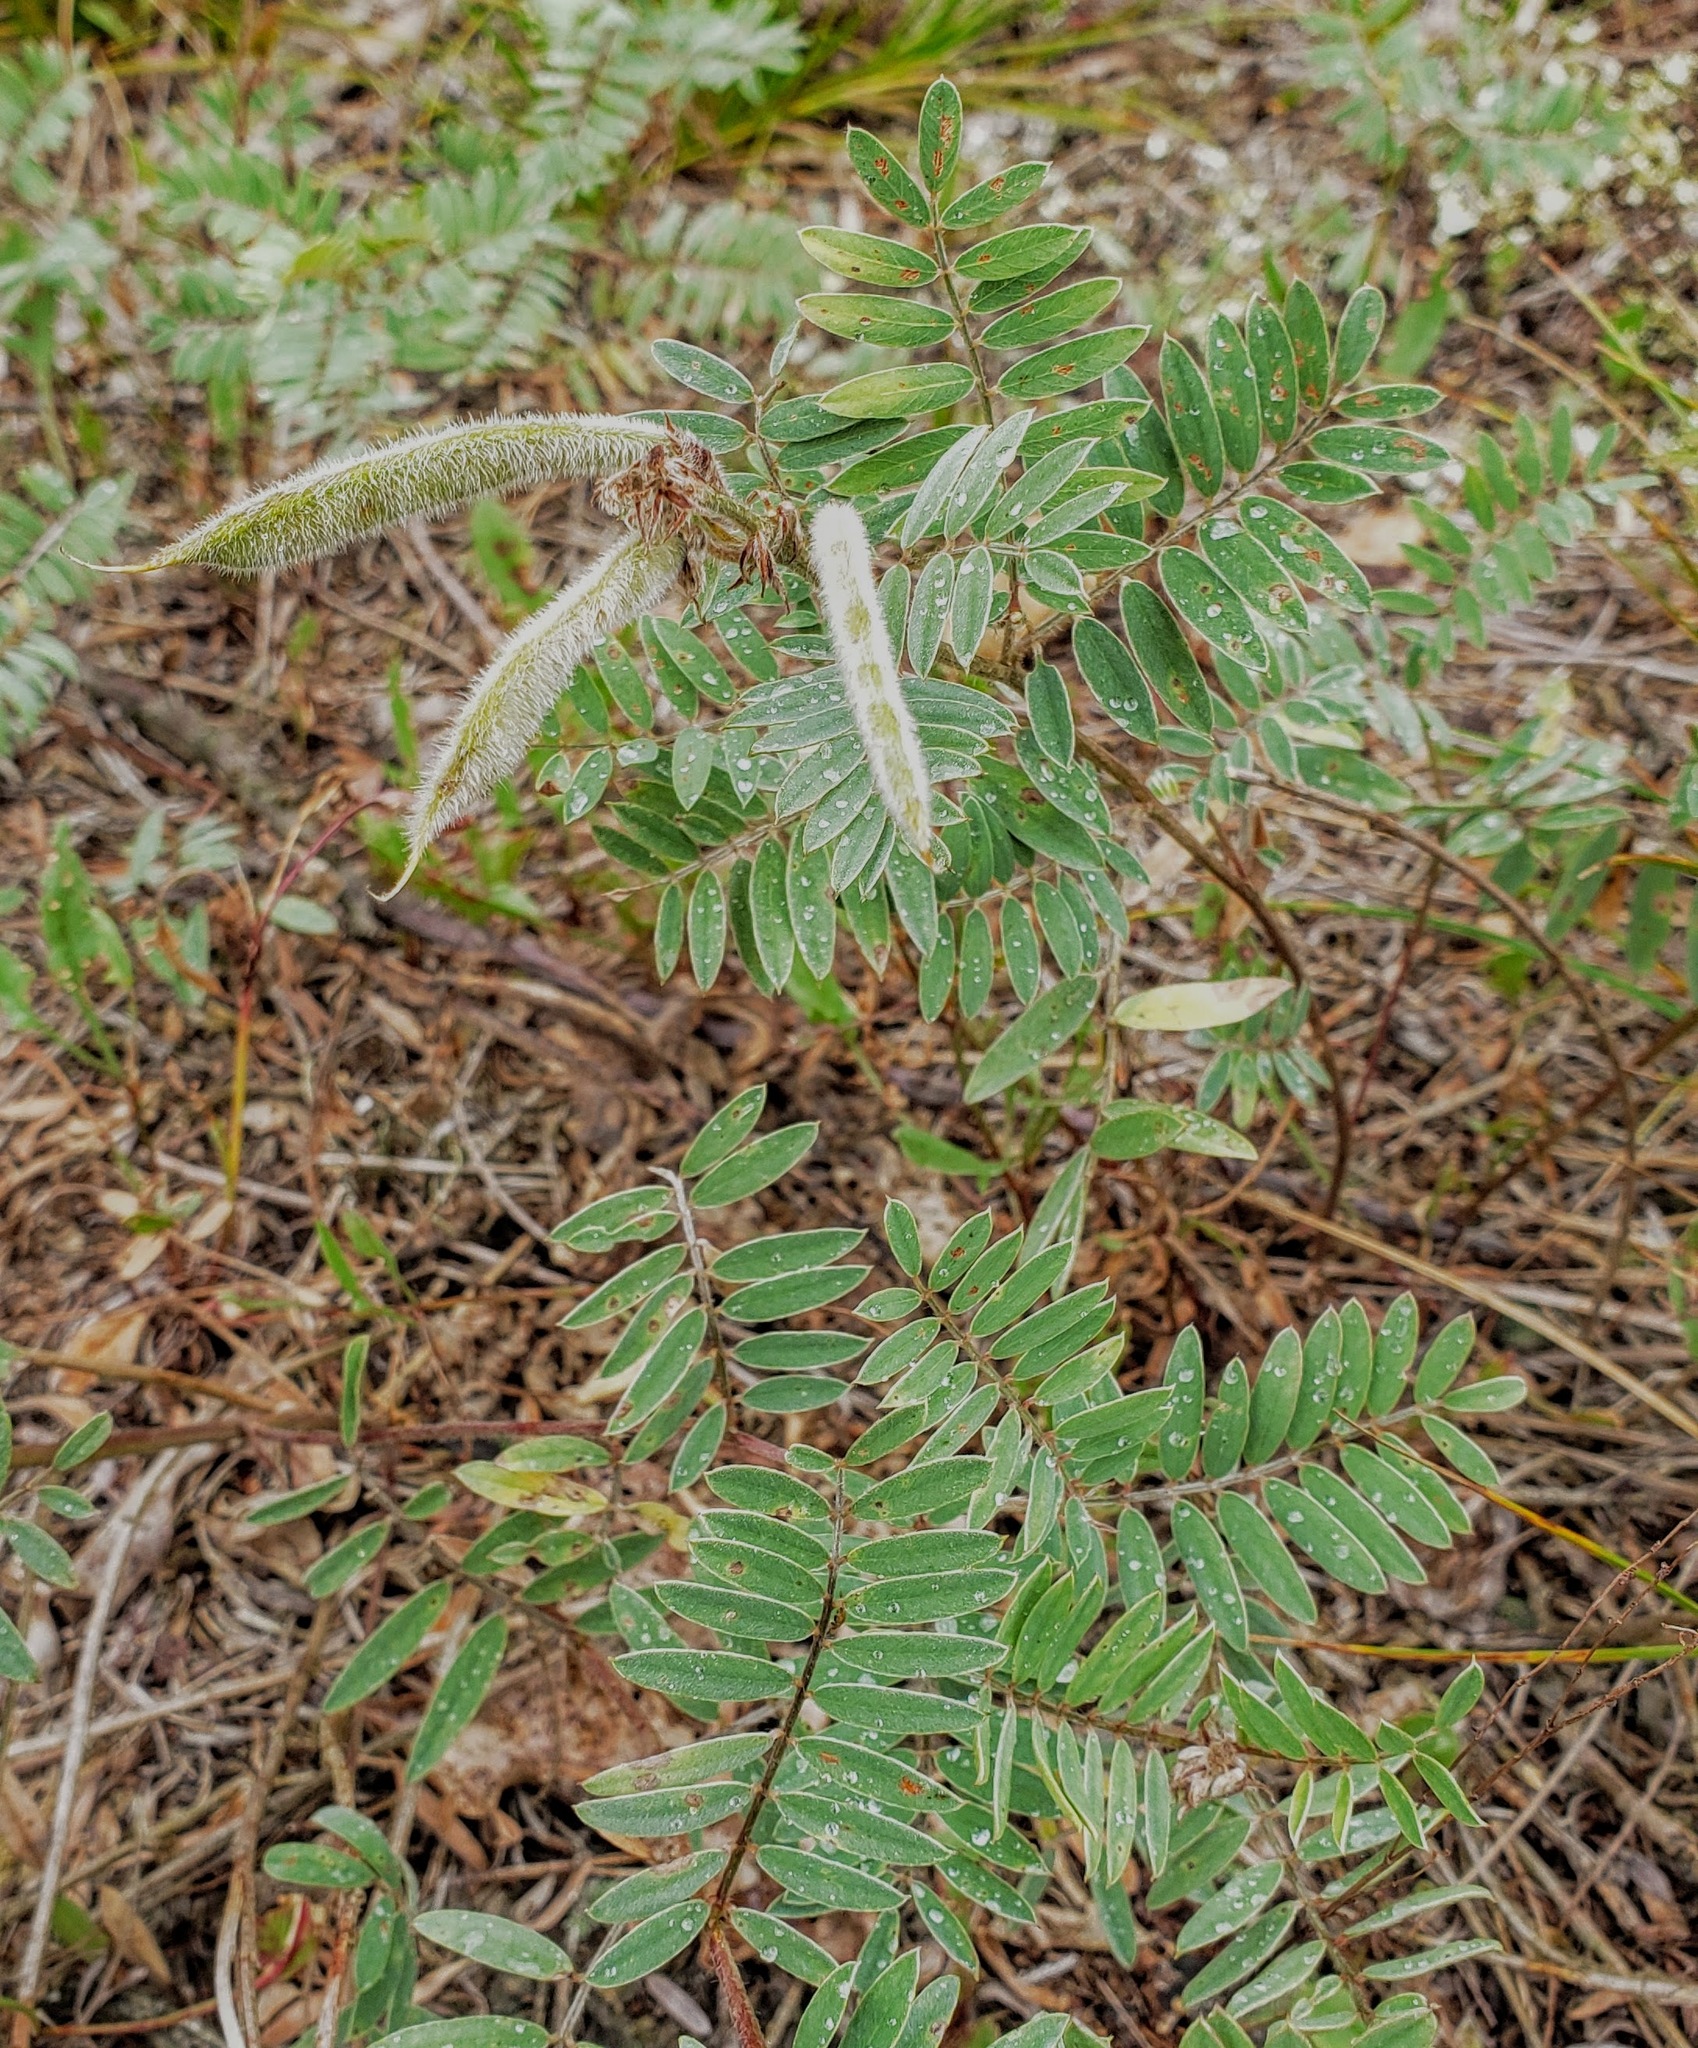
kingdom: Plantae
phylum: Tracheophyta
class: Magnoliopsida
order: Fabales
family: Fabaceae
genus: Tephrosia
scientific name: Tephrosia virginiana
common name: Rabbit-pea
